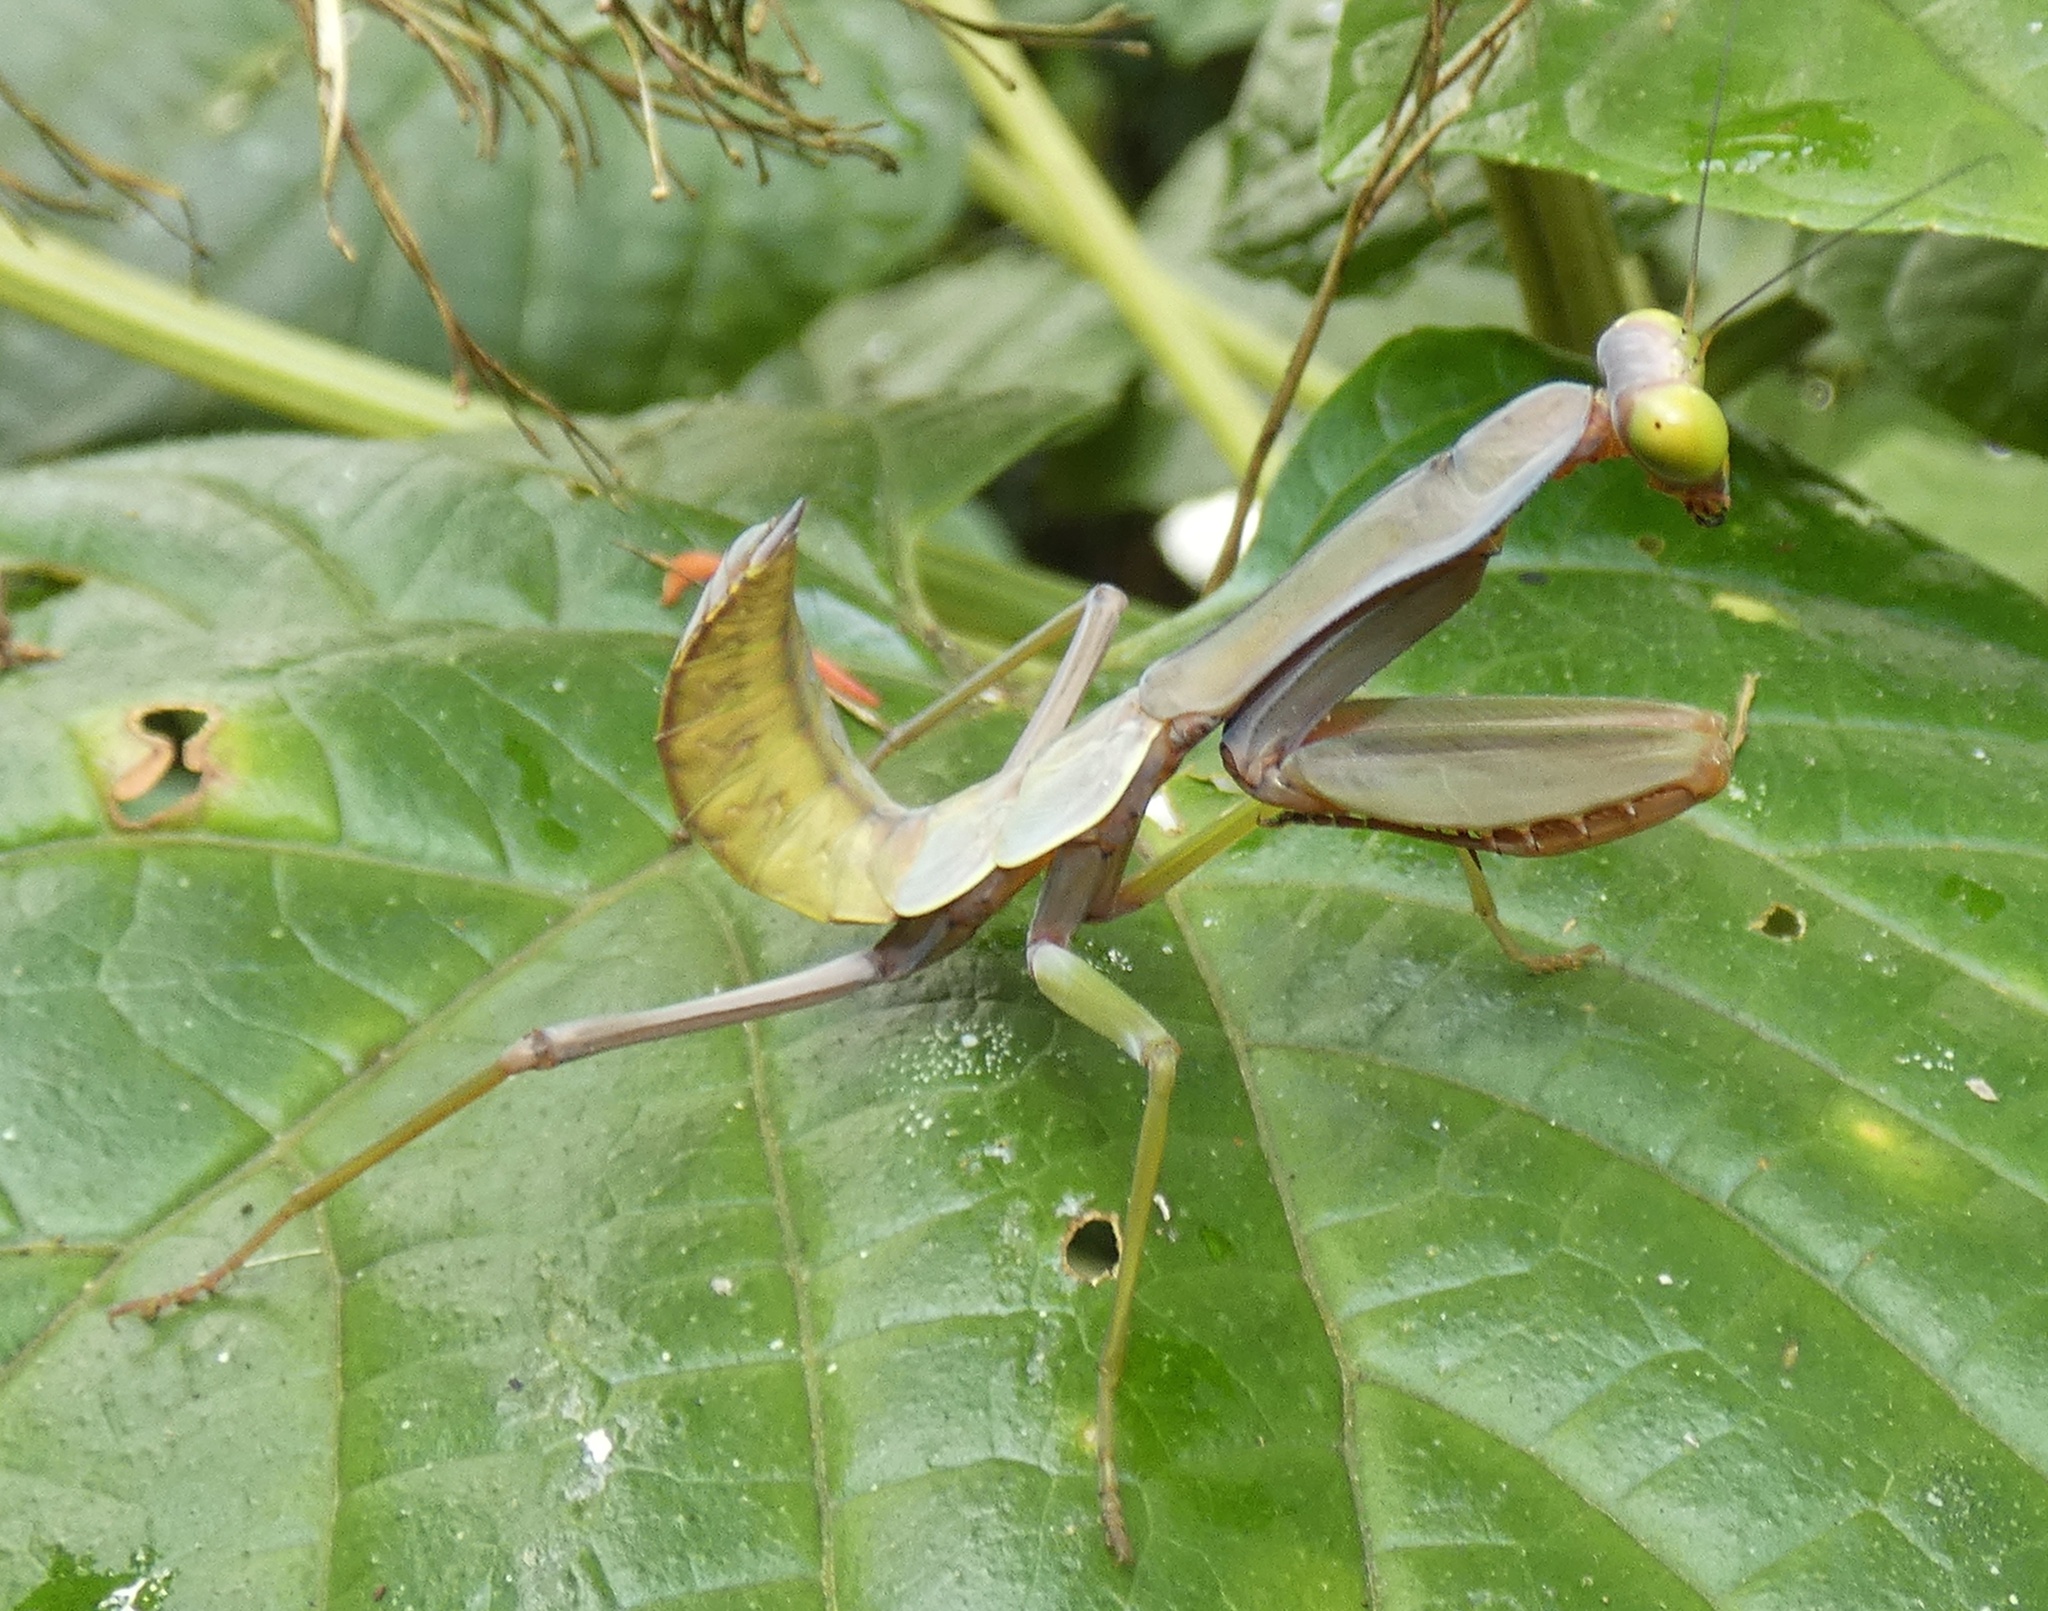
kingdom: Animalia
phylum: Arthropoda
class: Insecta
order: Mantodea
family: Mantidae
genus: Hierodula
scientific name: Hierodula majuscula
